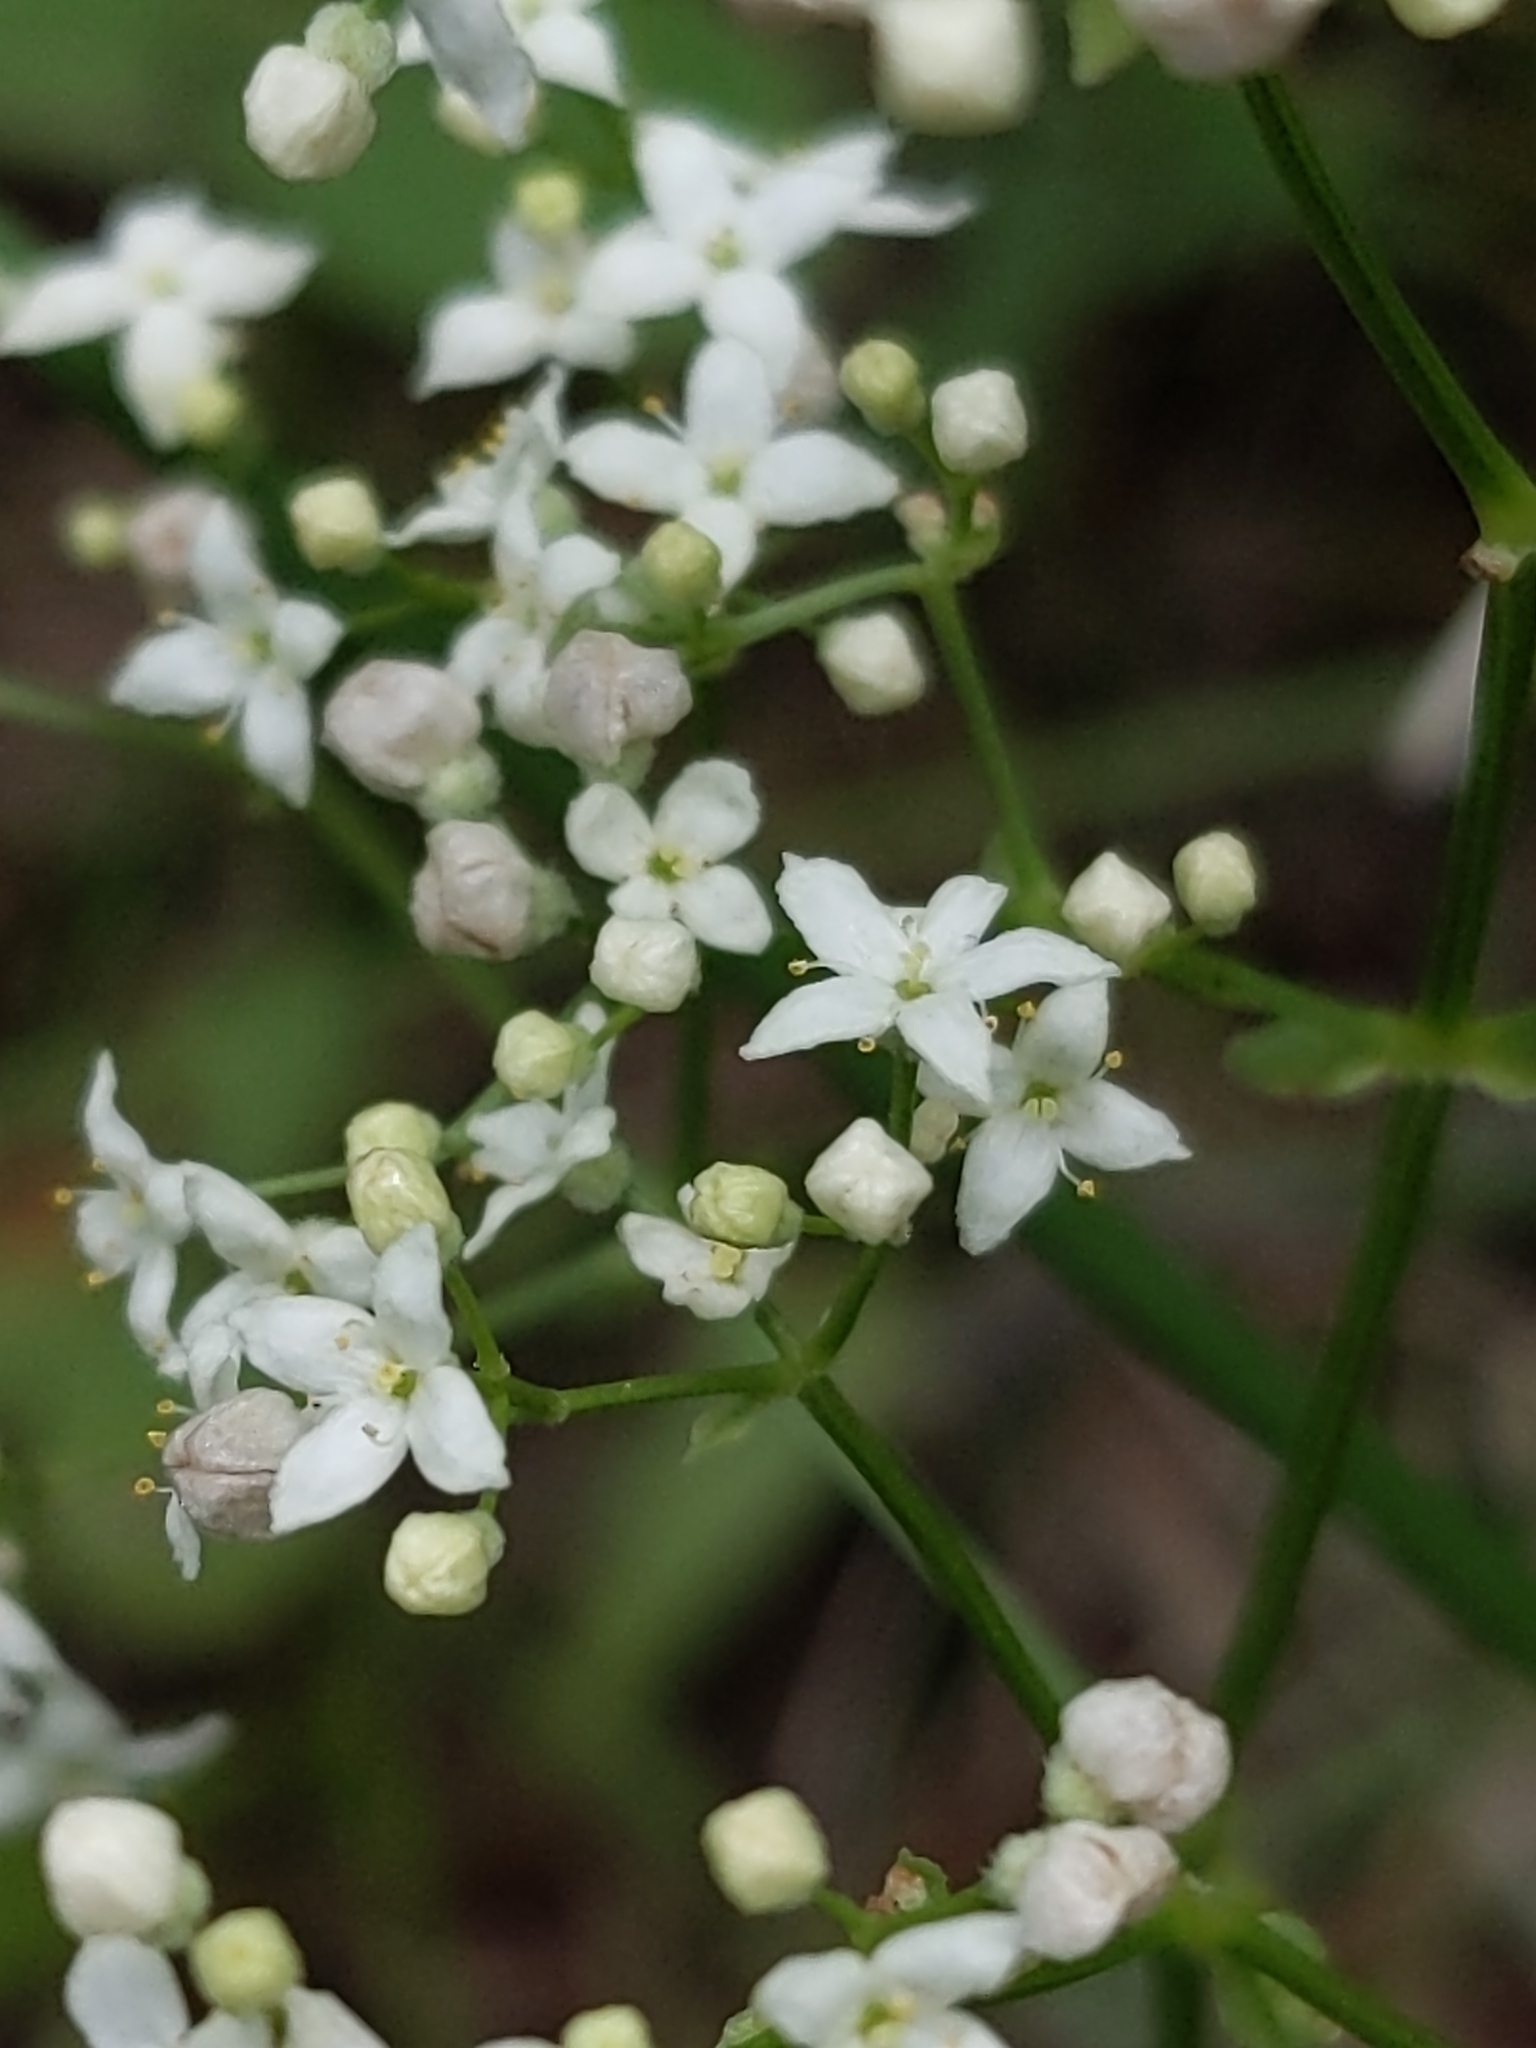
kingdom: Plantae
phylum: Tracheophyta
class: Magnoliopsida
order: Gentianales
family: Rubiaceae
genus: Galium
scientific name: Galium boreale
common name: Northern bedstraw
